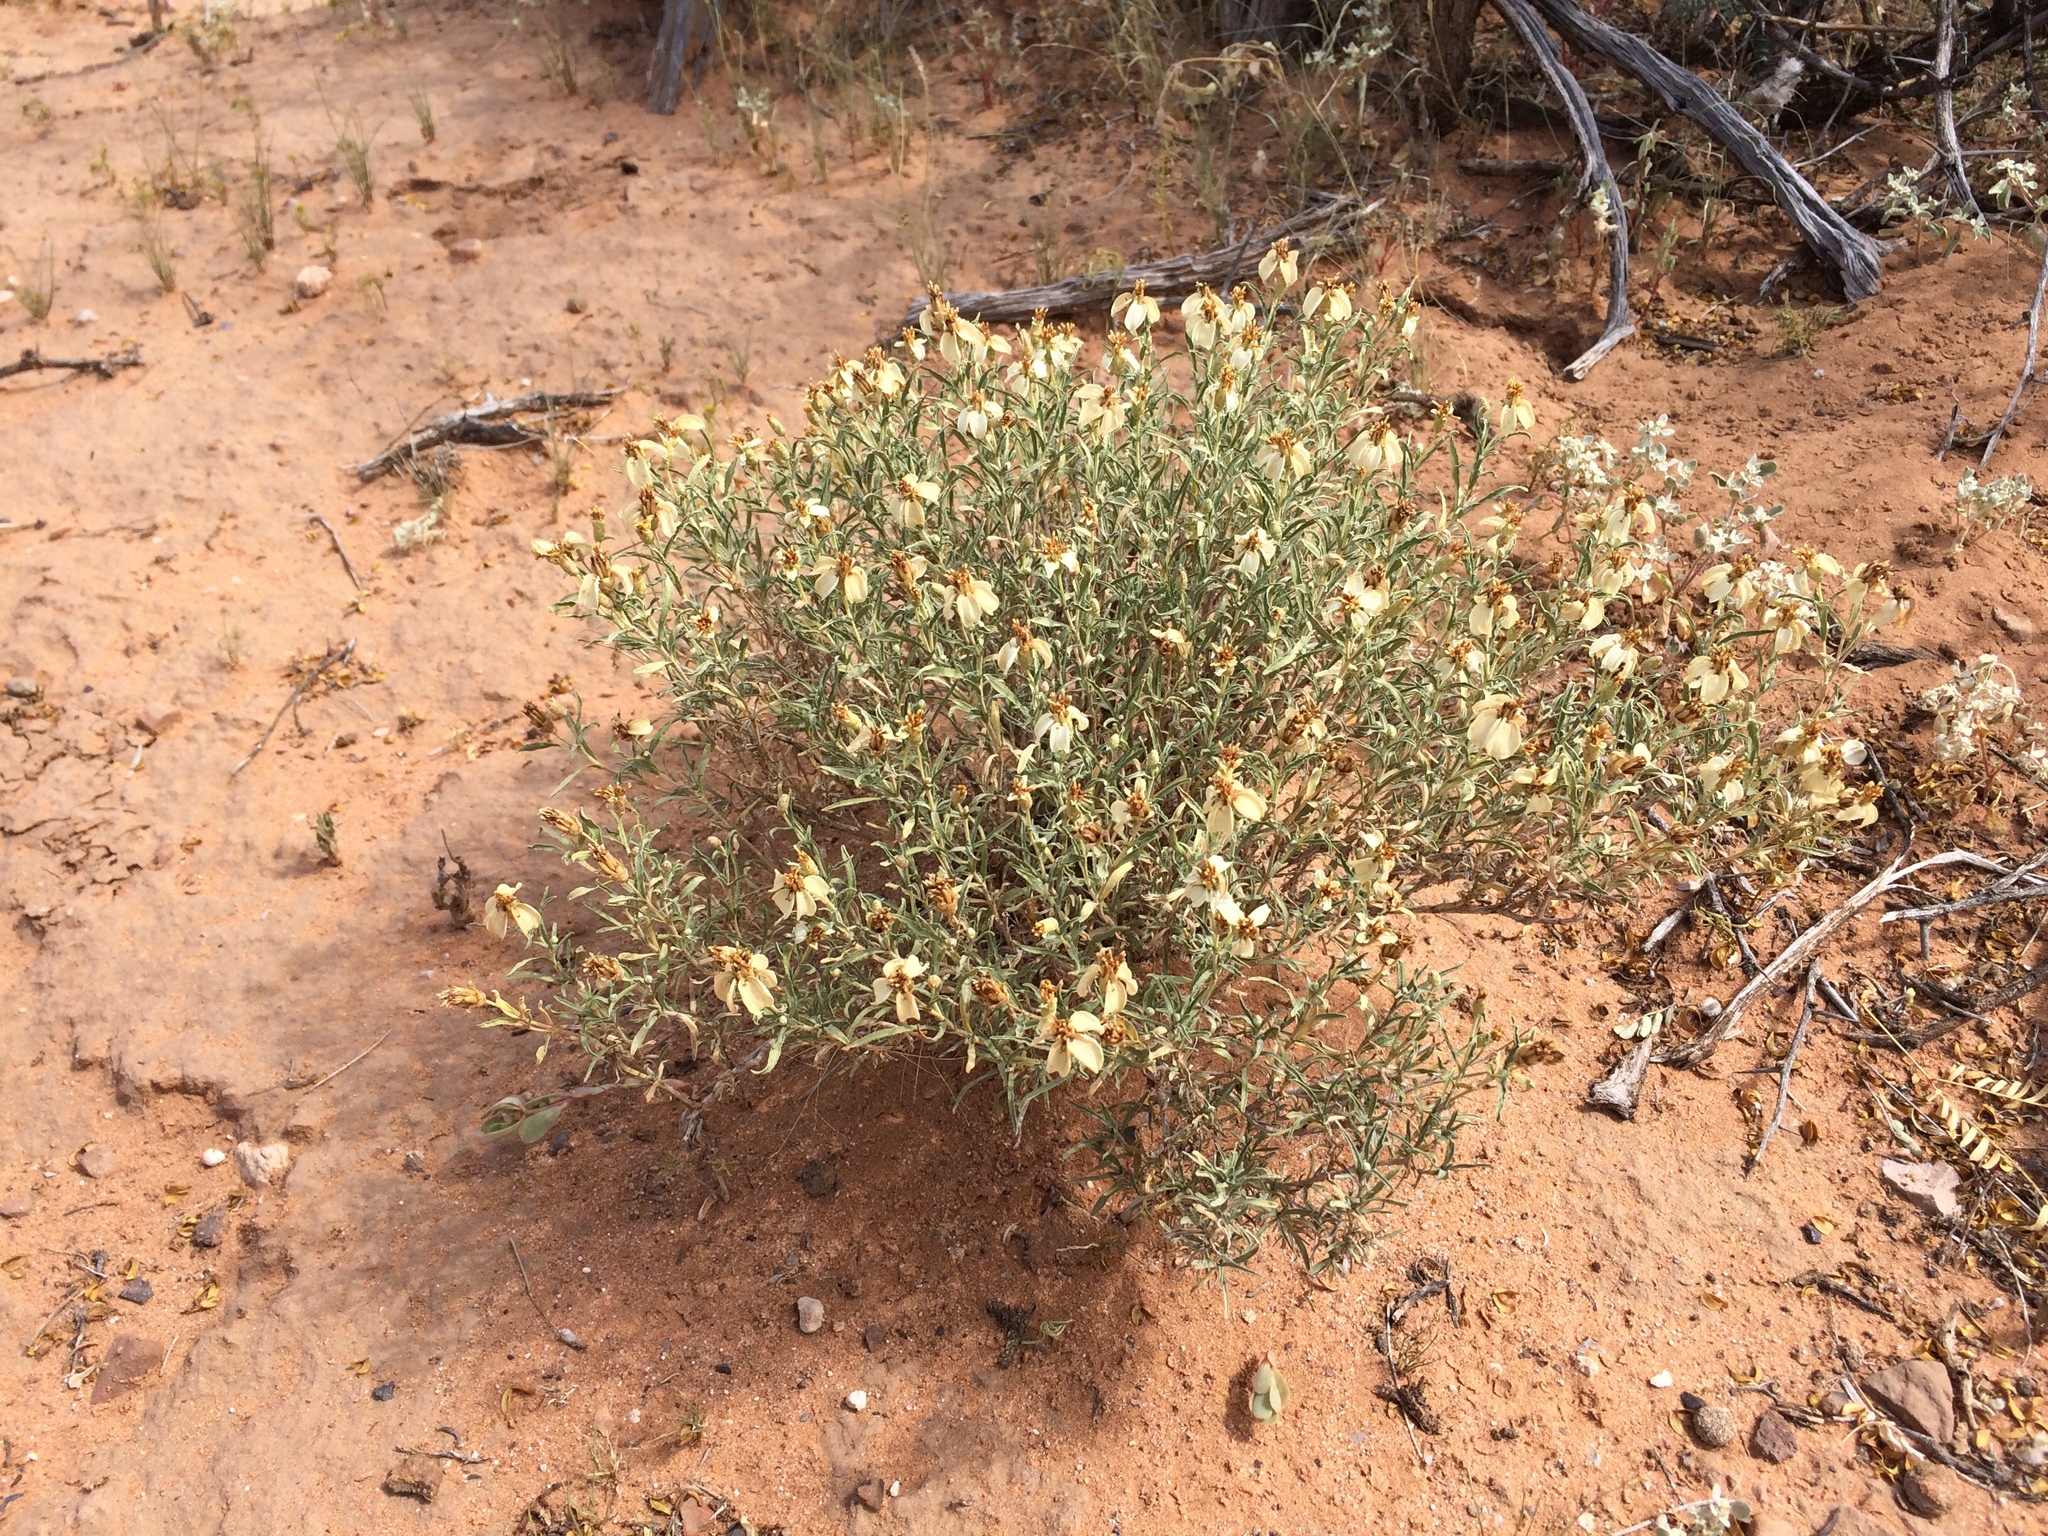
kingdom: Plantae
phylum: Tracheophyta
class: Magnoliopsida
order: Asterales
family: Asteraceae
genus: Zinnia
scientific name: Zinnia acerosa
